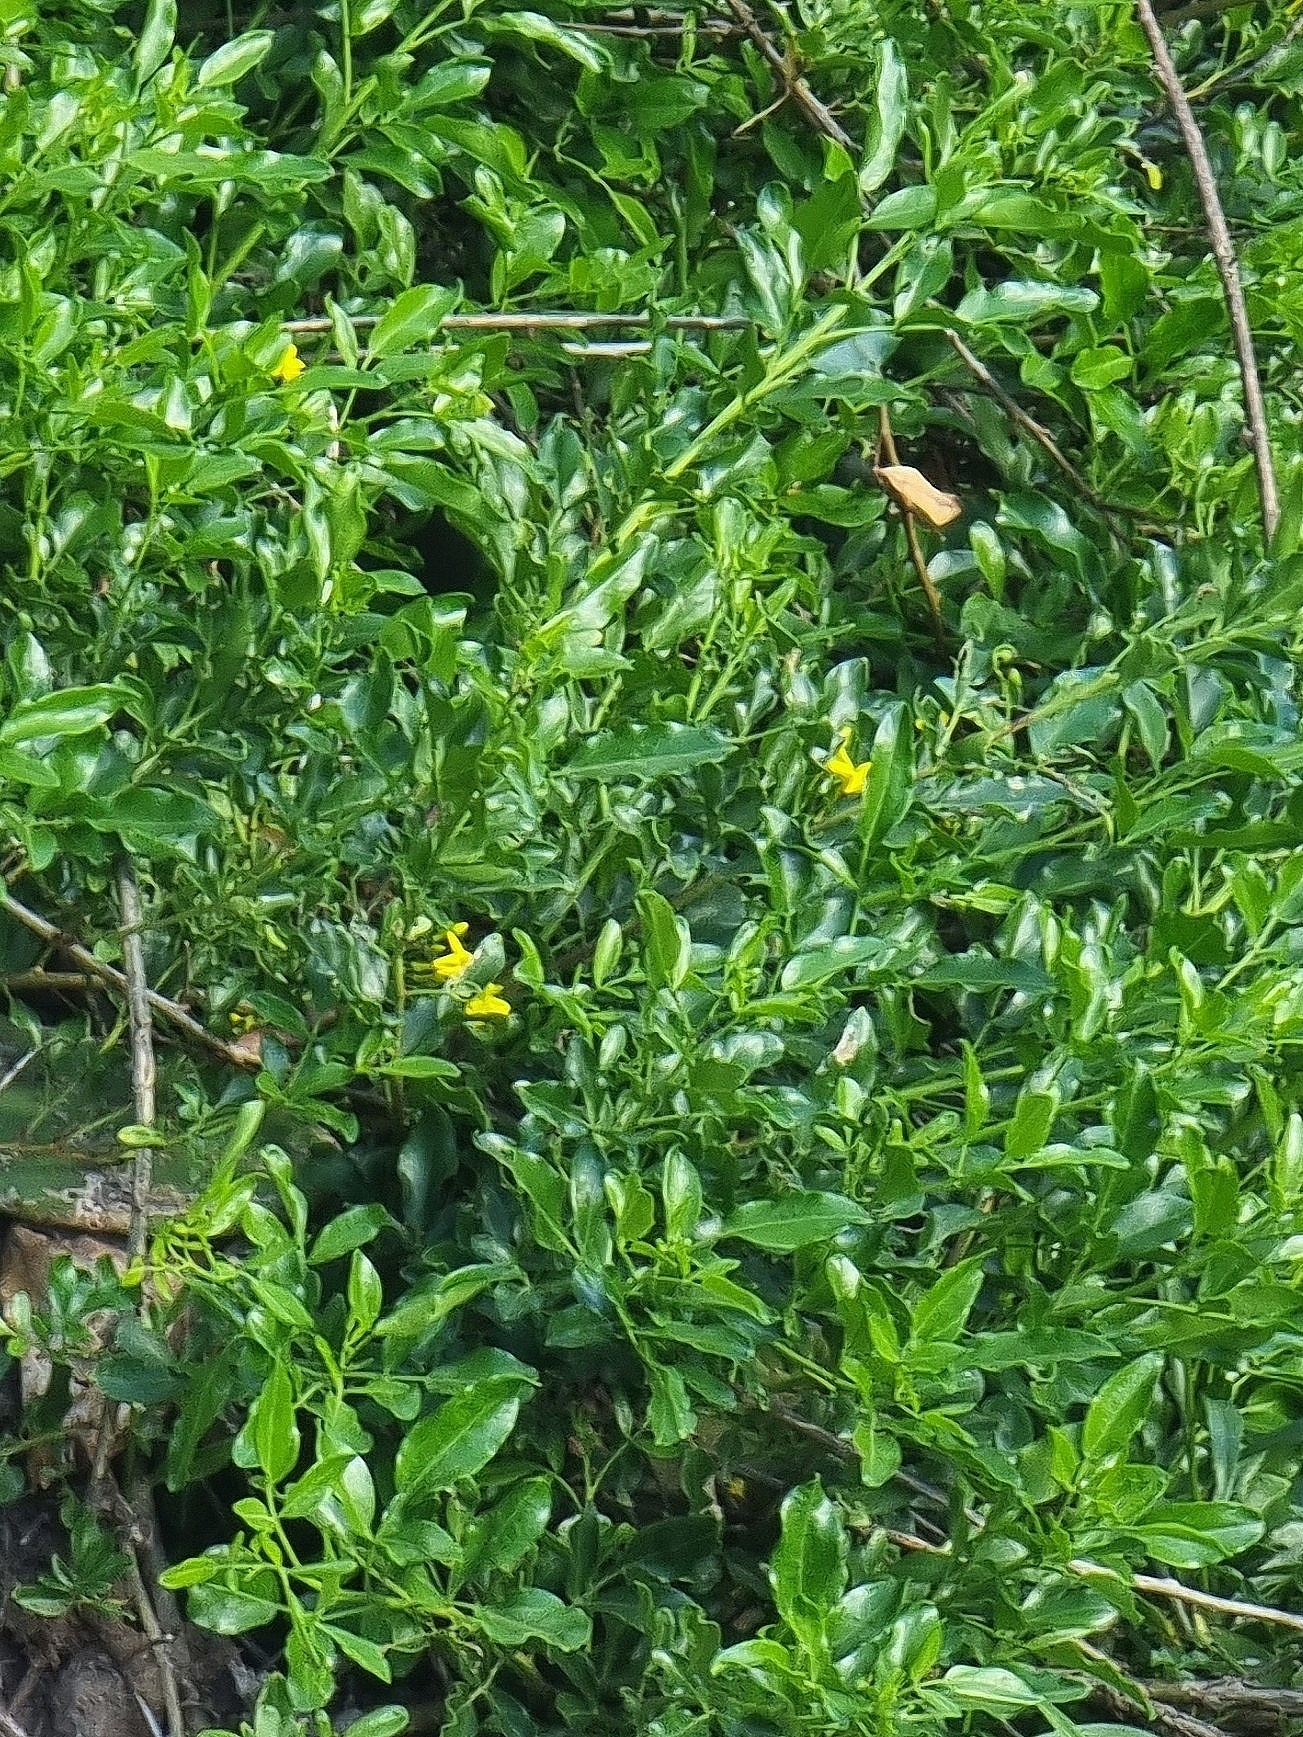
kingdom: Plantae
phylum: Tracheophyta
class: Magnoliopsida
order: Lamiales
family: Oleaceae
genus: Chrysojasminum
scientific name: Chrysojasminum odoratissimum
